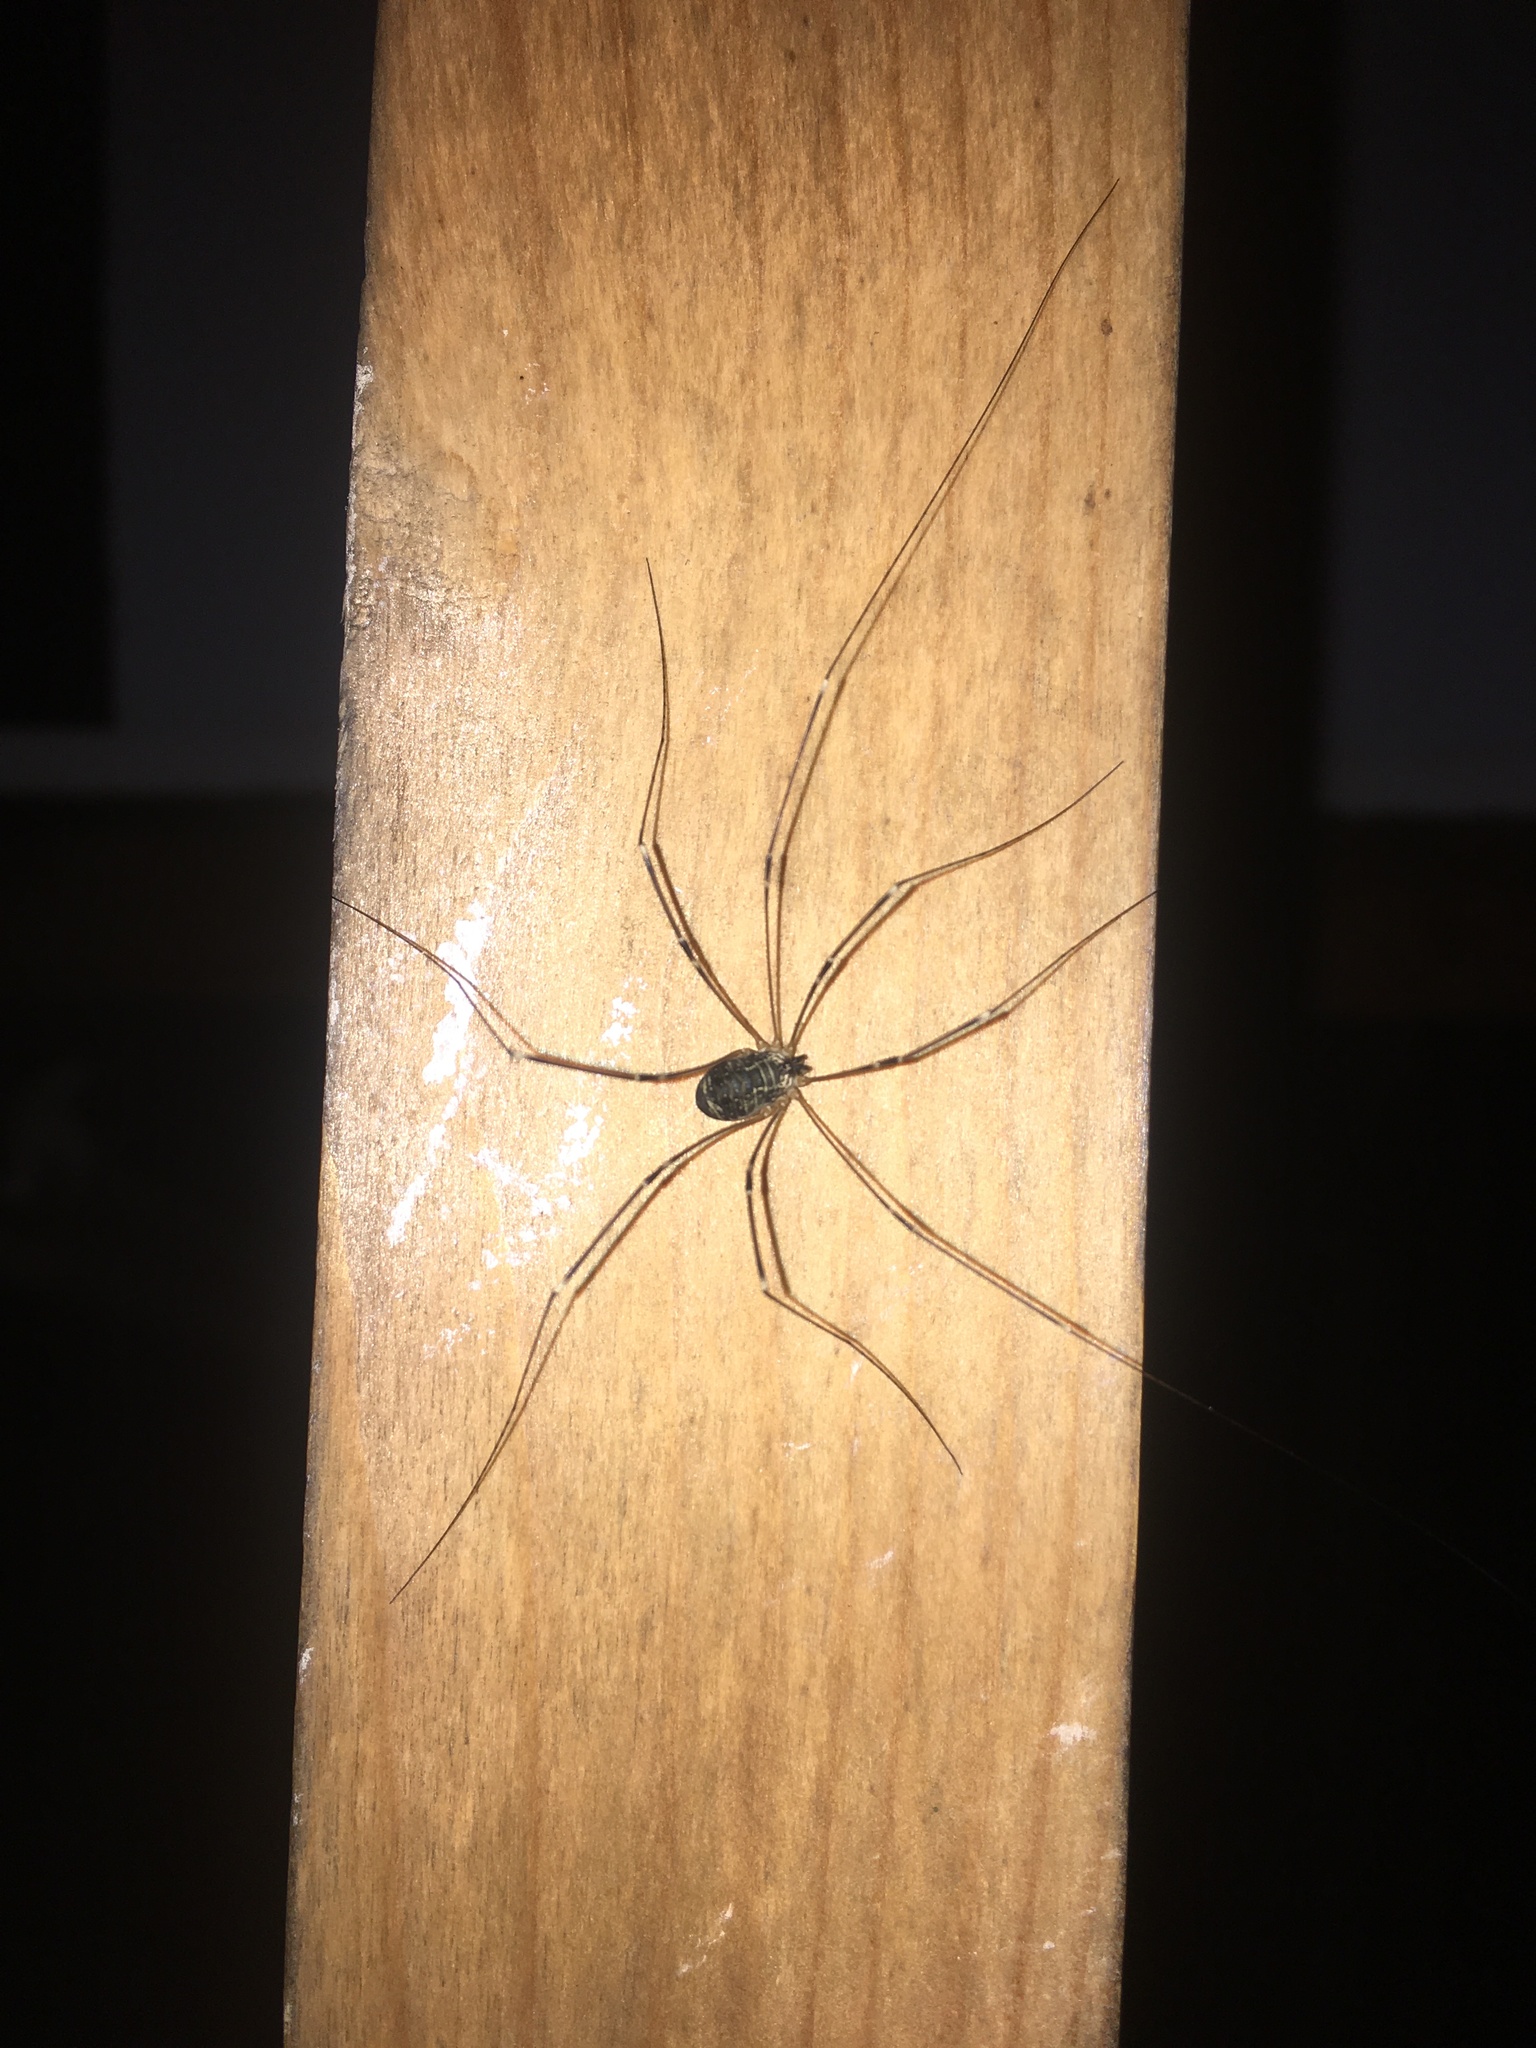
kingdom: Animalia
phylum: Arthropoda
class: Arachnida
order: Opiliones
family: Sclerosomatidae
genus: Leiobunum
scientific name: Leiobunum gracile
